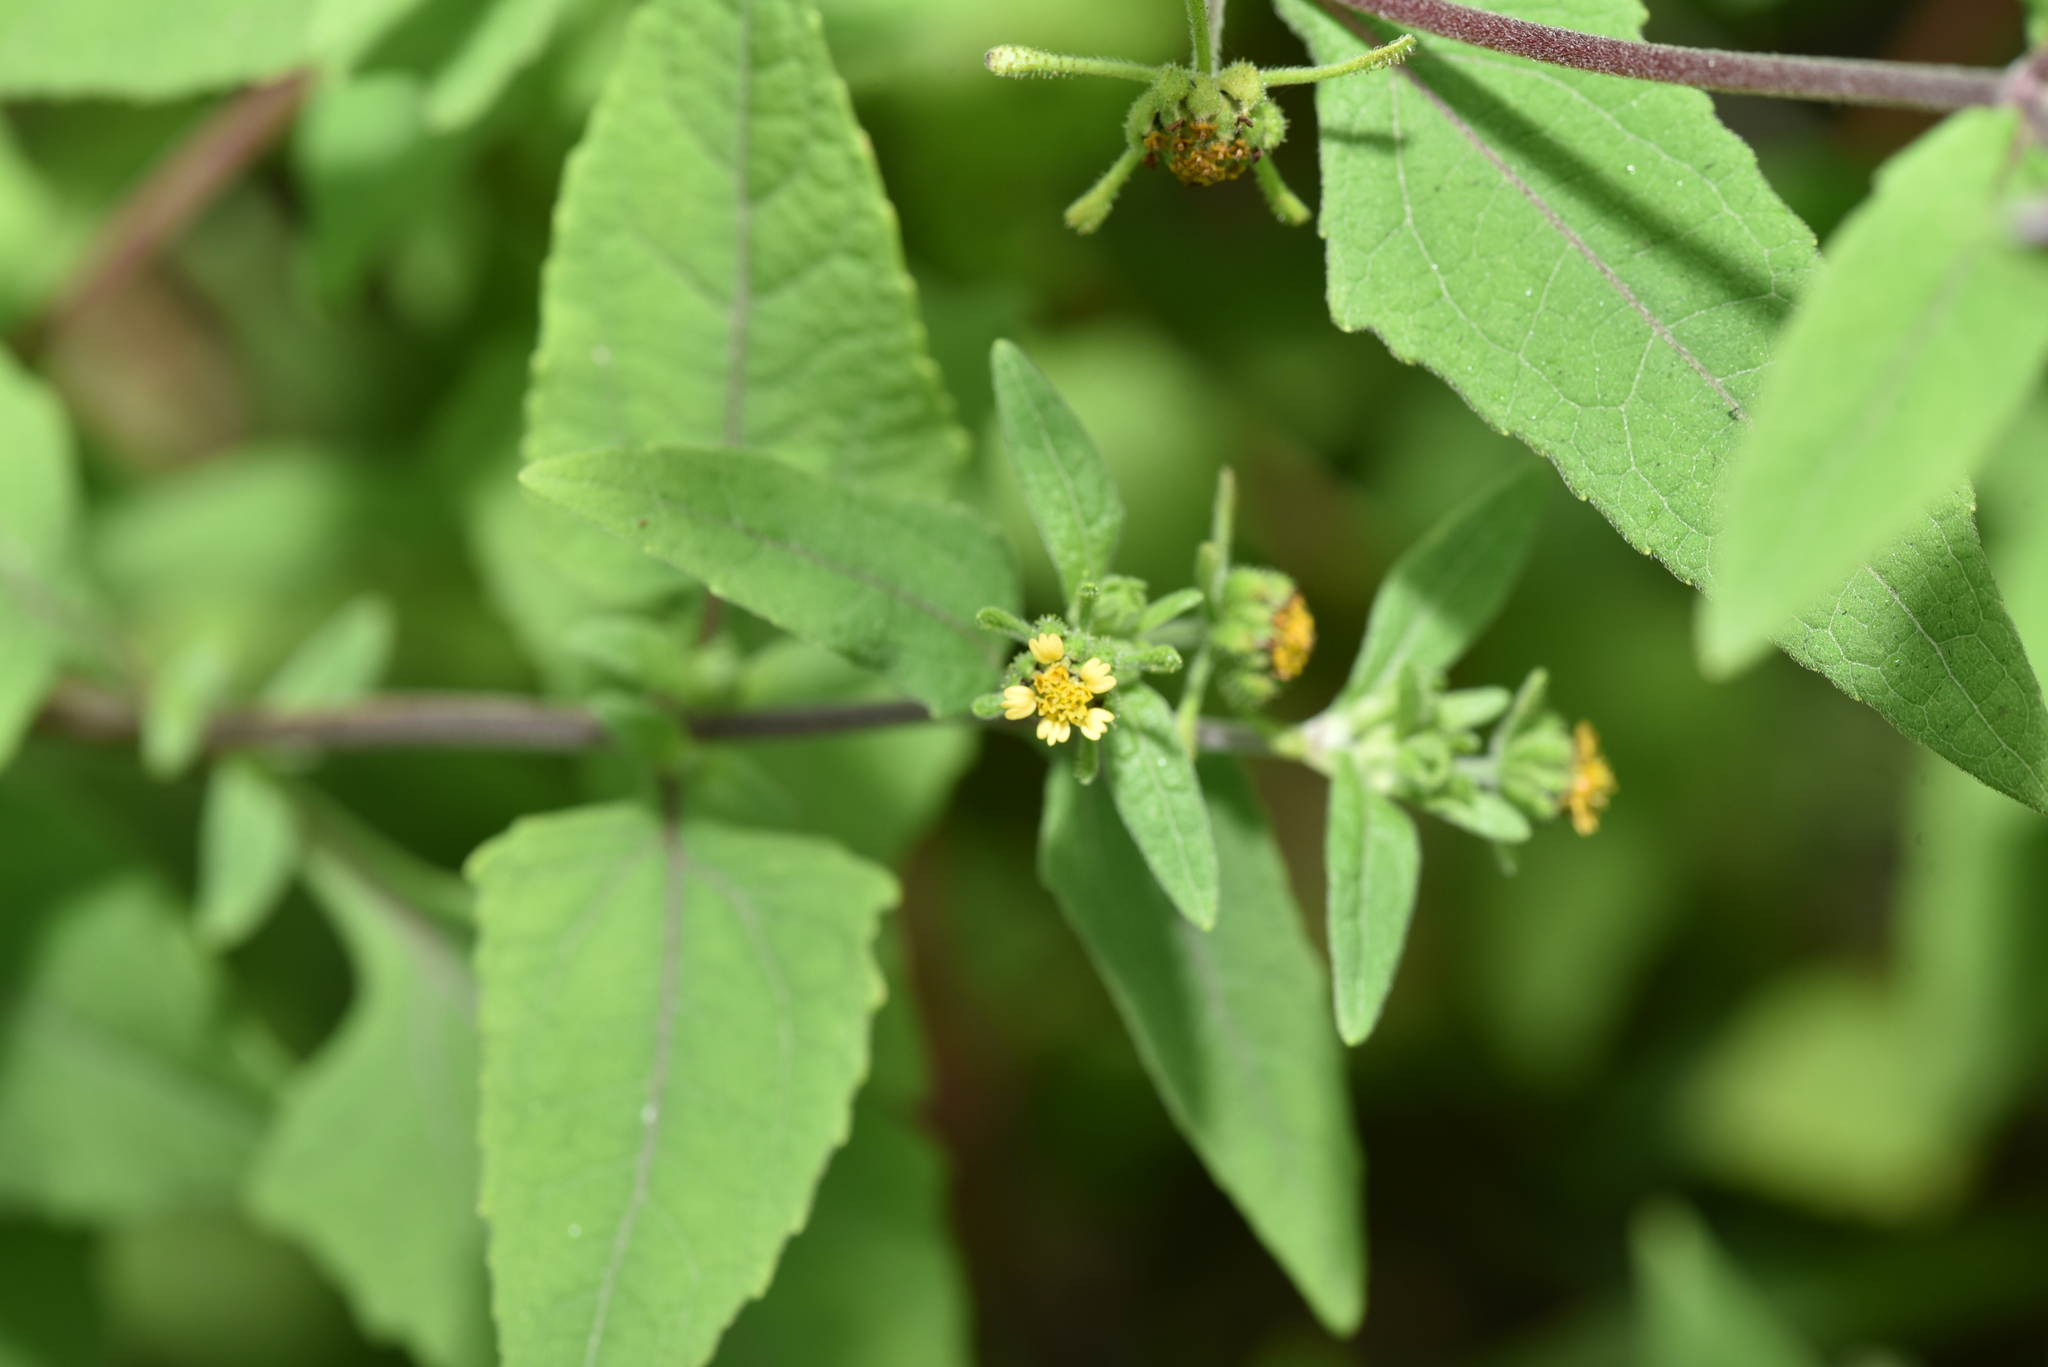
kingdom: Plantae
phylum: Tracheophyta
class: Magnoliopsida
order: Asterales
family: Asteraceae
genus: Sigesbeckia
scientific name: Sigesbeckia orientalis
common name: Eastern st paul's-wort
